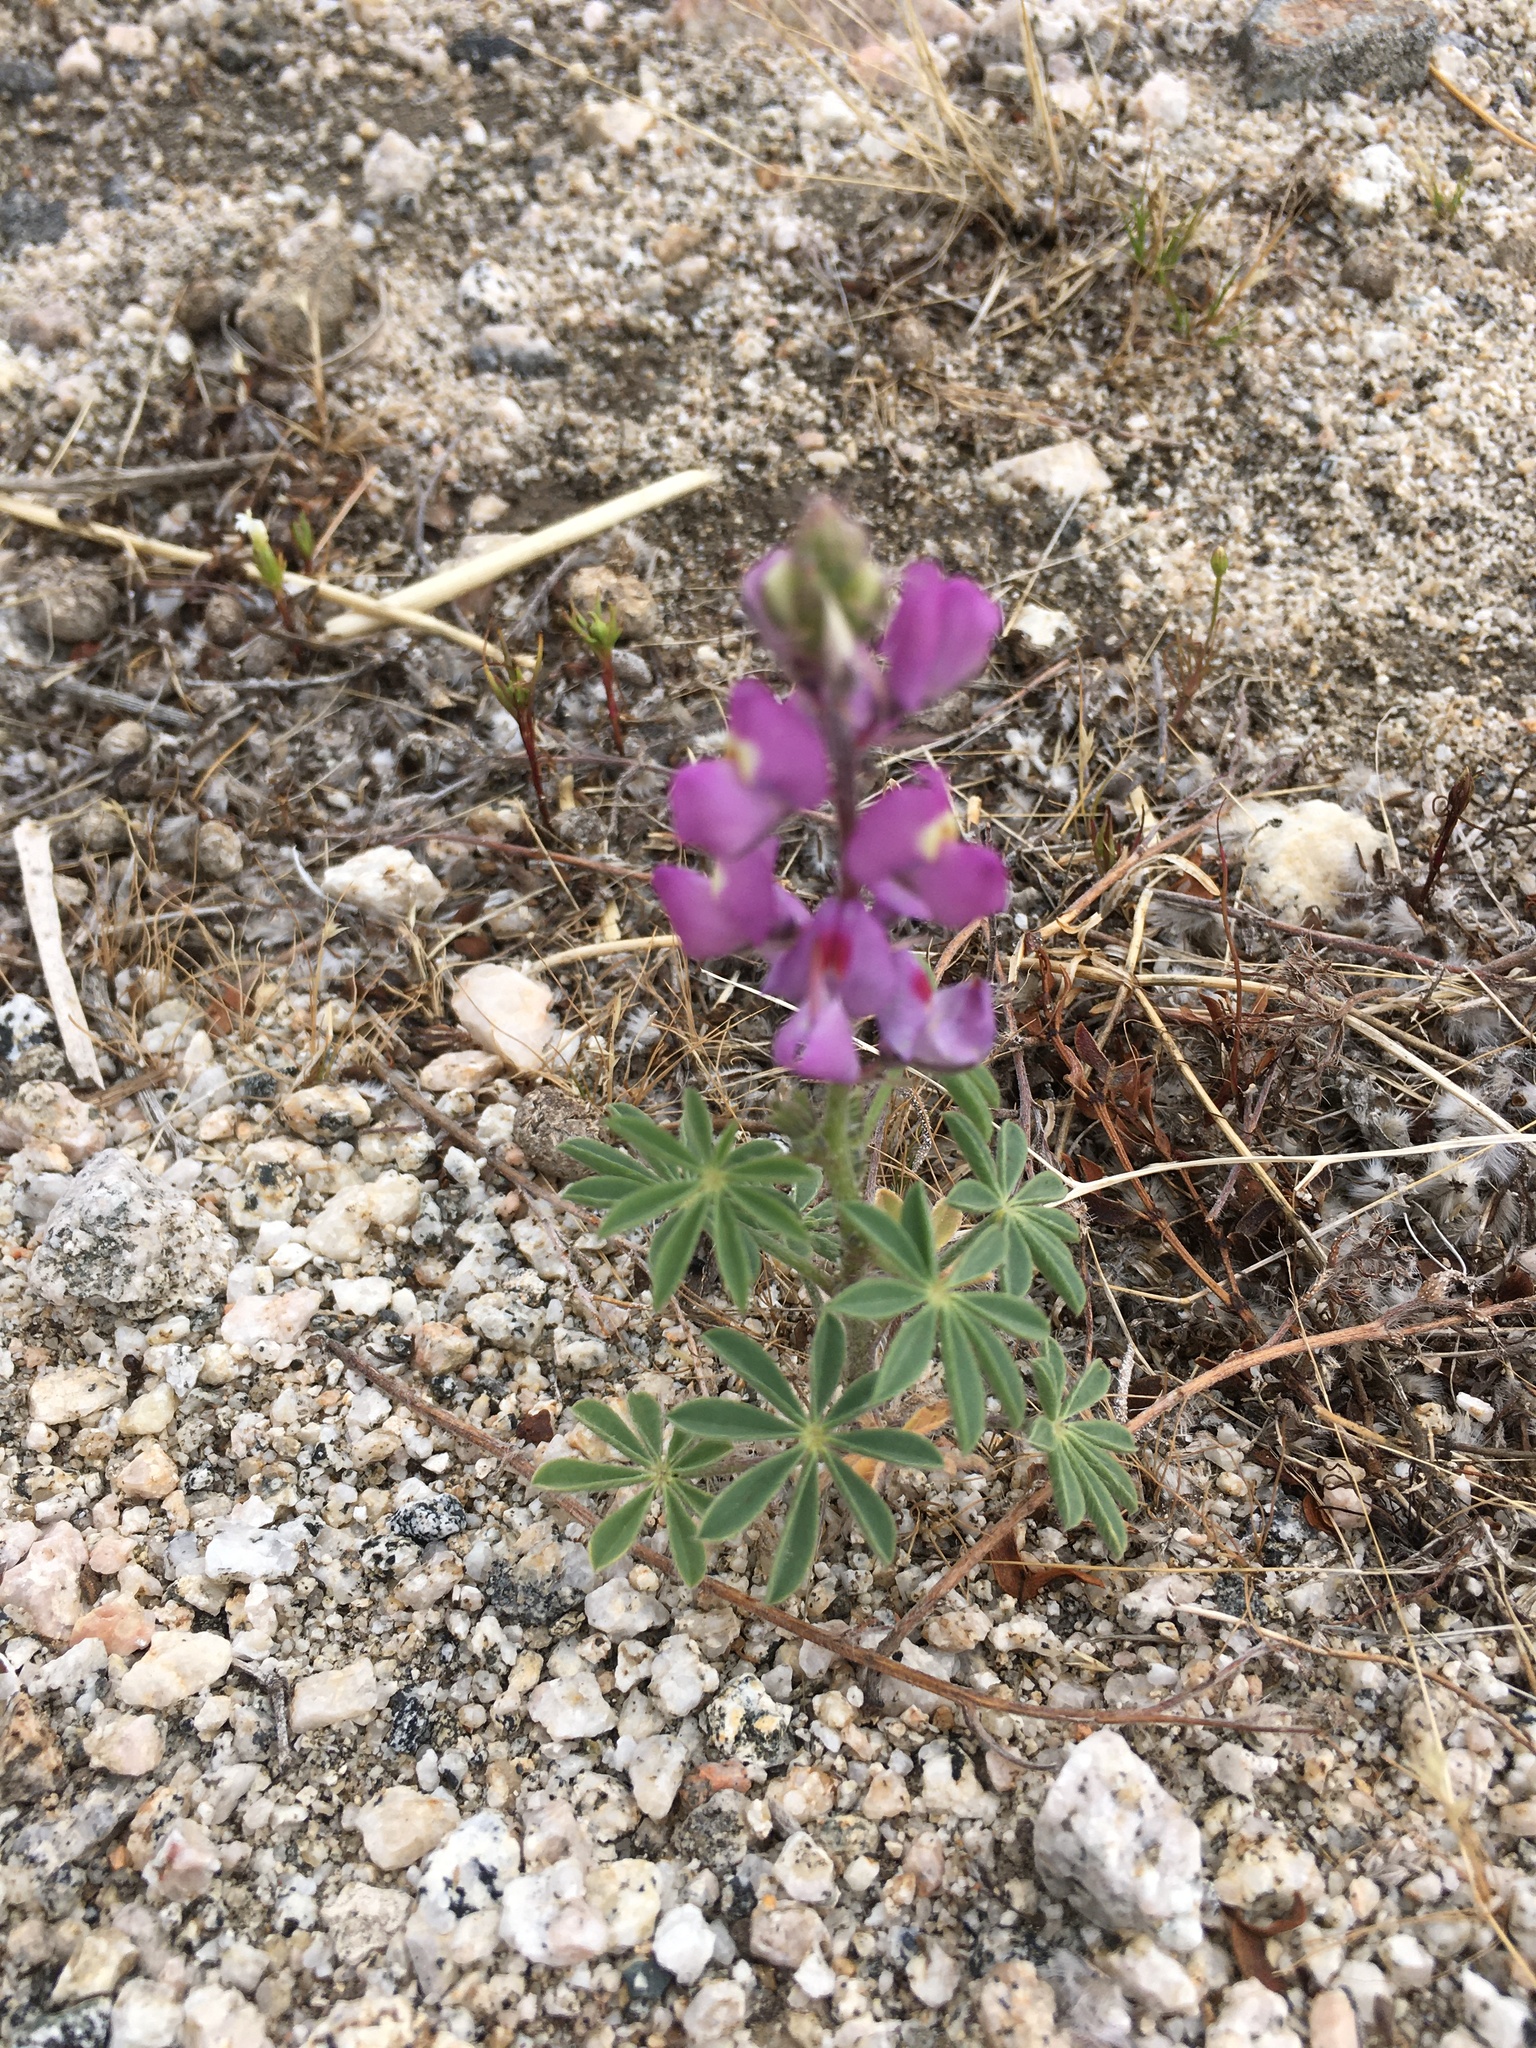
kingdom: Plantae
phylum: Tracheophyta
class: Magnoliopsida
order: Fabales
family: Fabaceae
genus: Lupinus
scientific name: Lupinus arizonicus
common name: Arizona lupine
